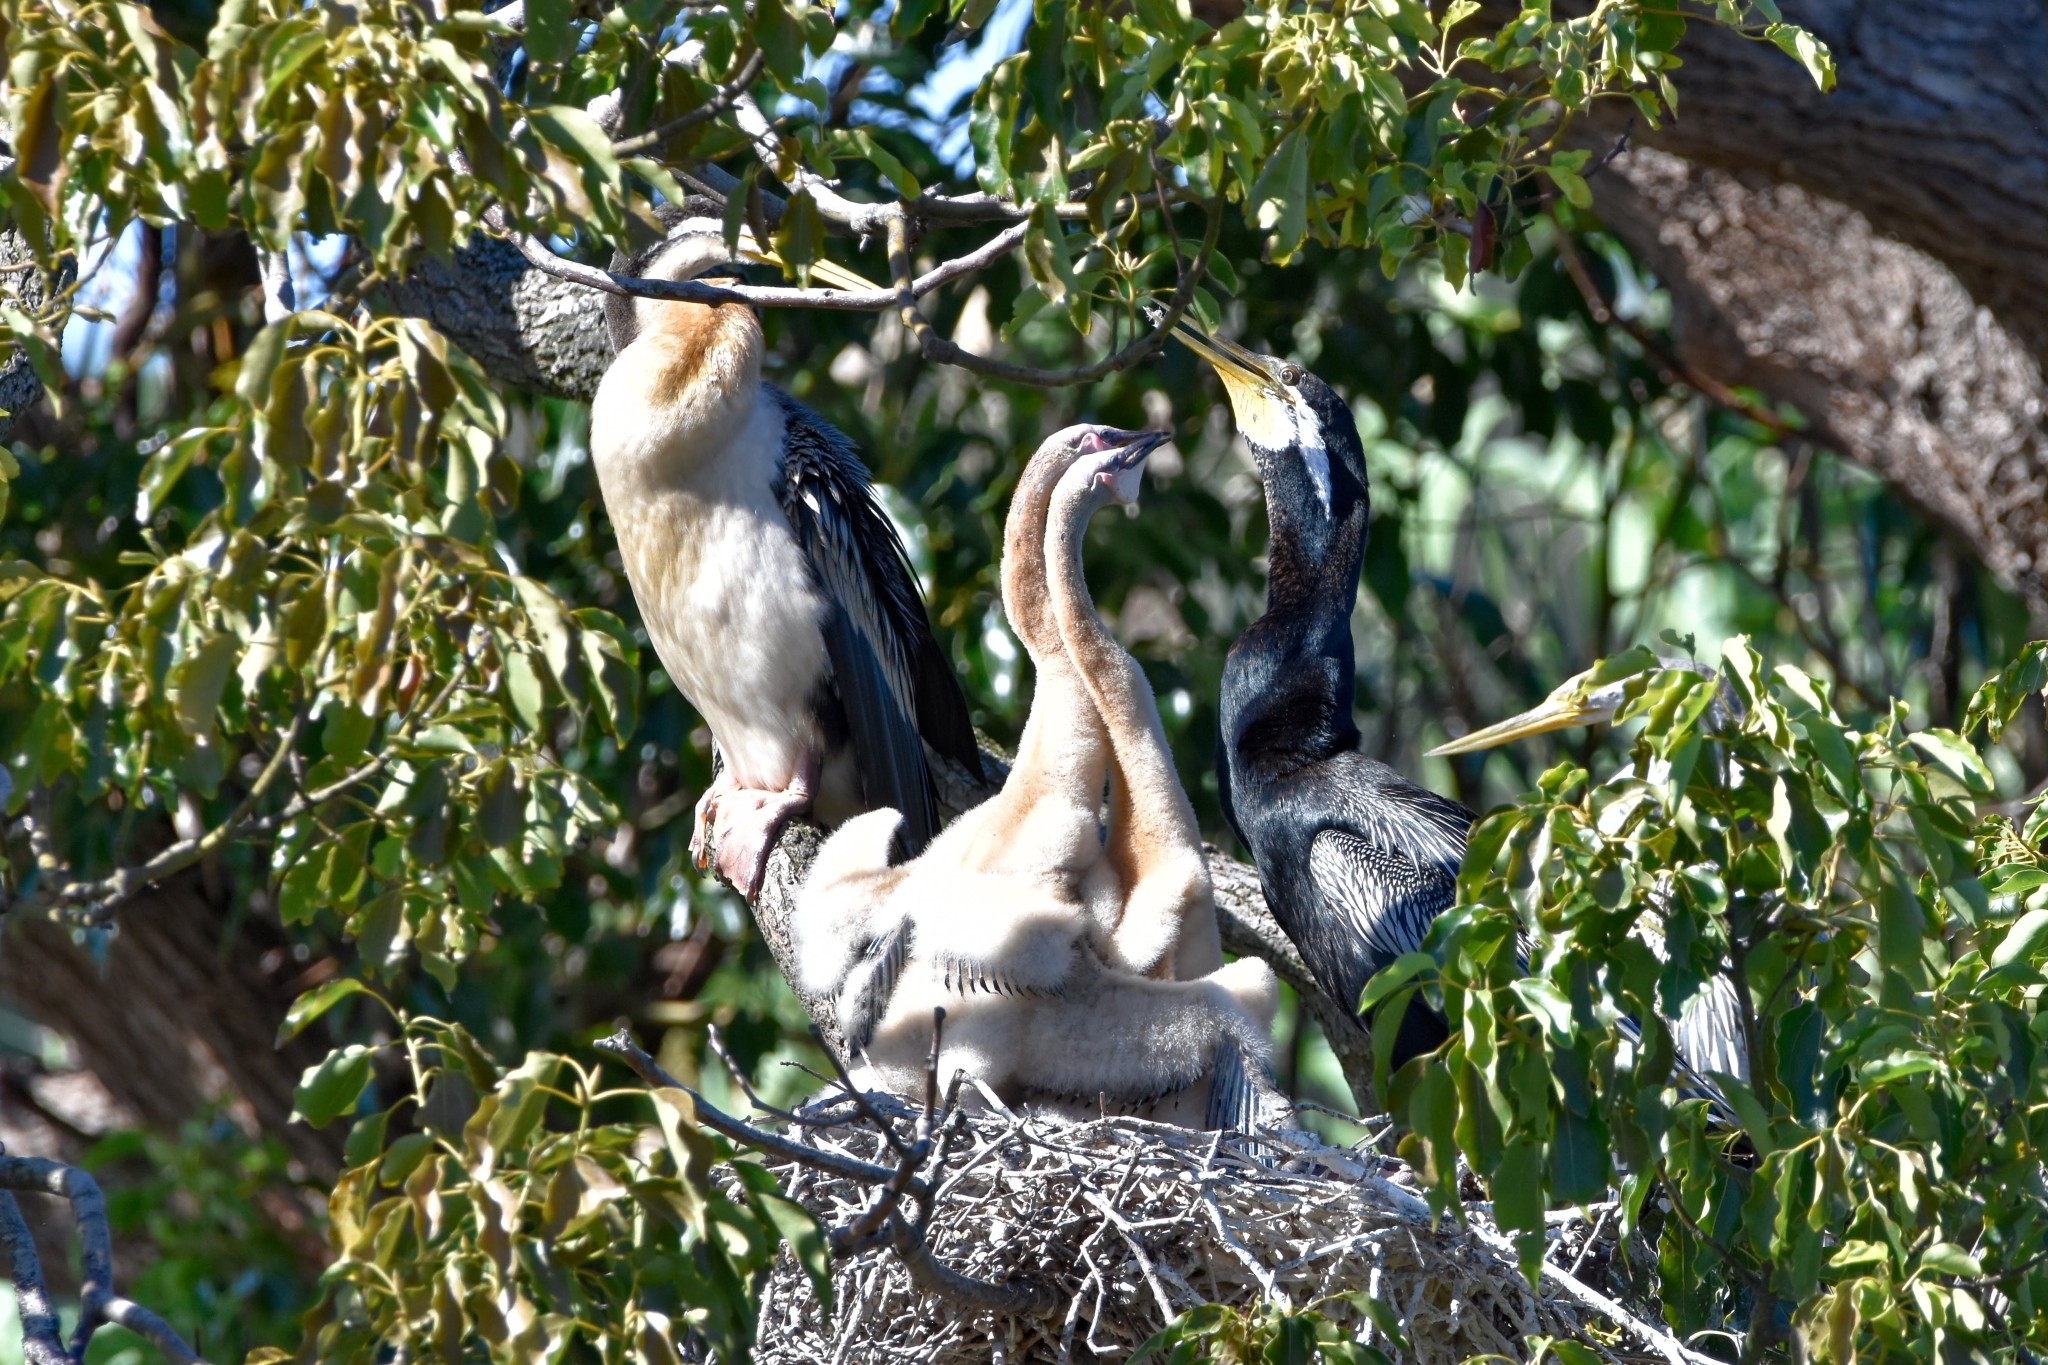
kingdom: Animalia
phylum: Chordata
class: Aves
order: Suliformes
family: Anhingidae
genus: Anhinga
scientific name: Anhinga novaehollandiae
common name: Australasian darter
